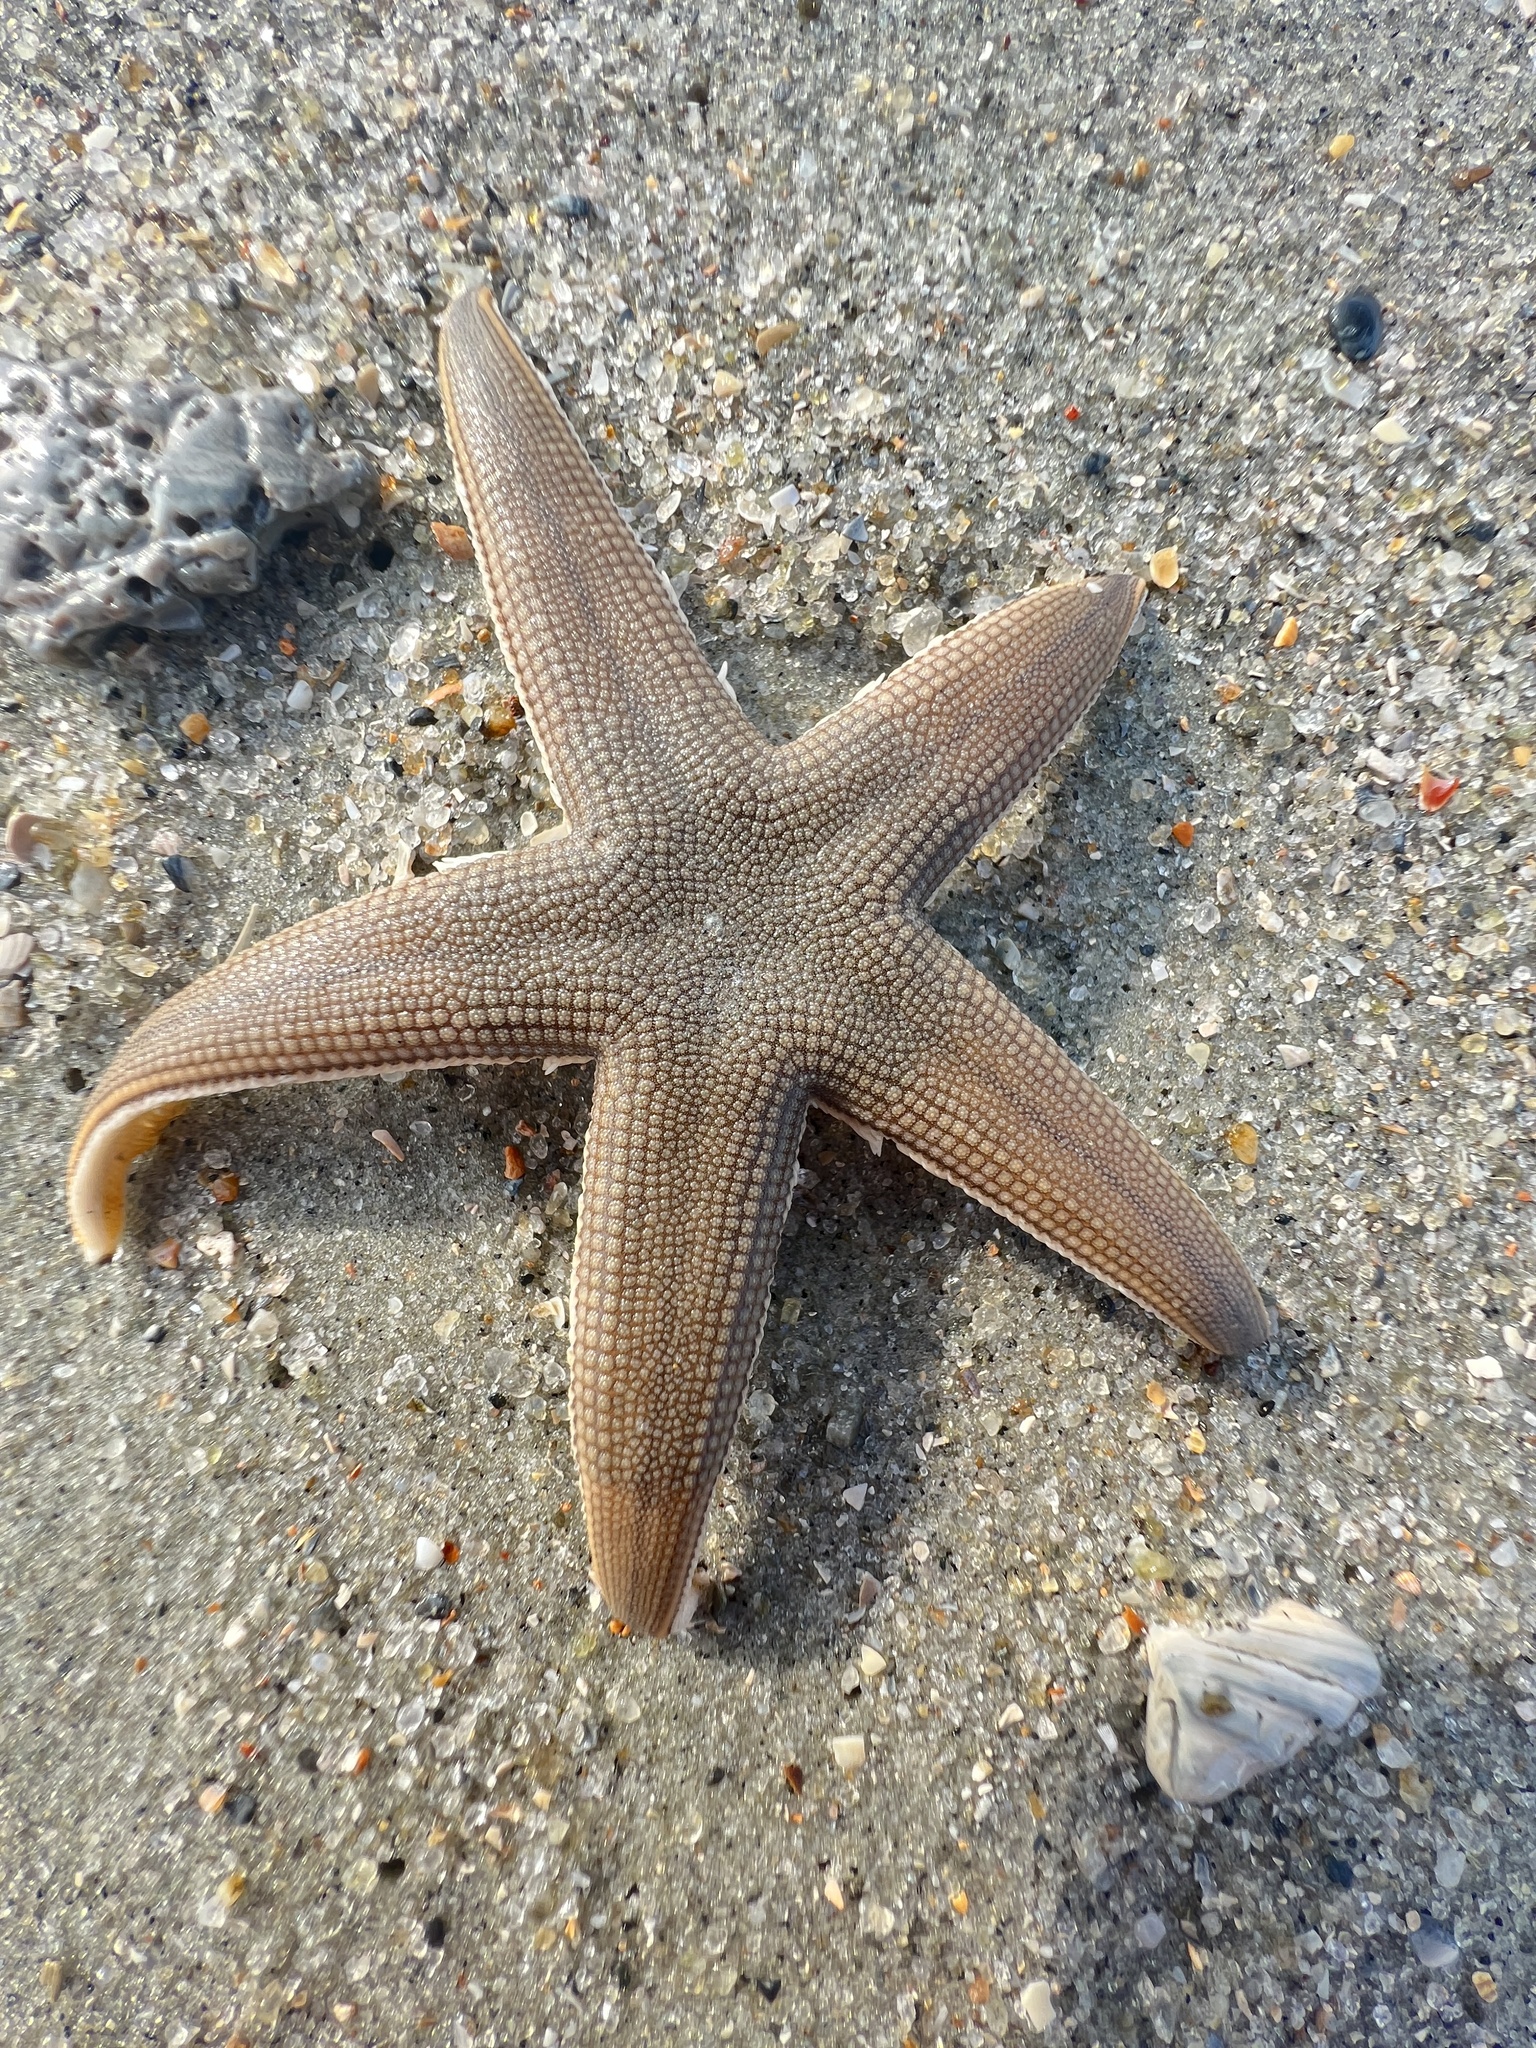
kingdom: Animalia
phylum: Echinodermata
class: Asteroidea
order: Paxillosida
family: Luidiidae
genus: Luidia
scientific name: Luidia clathrata
